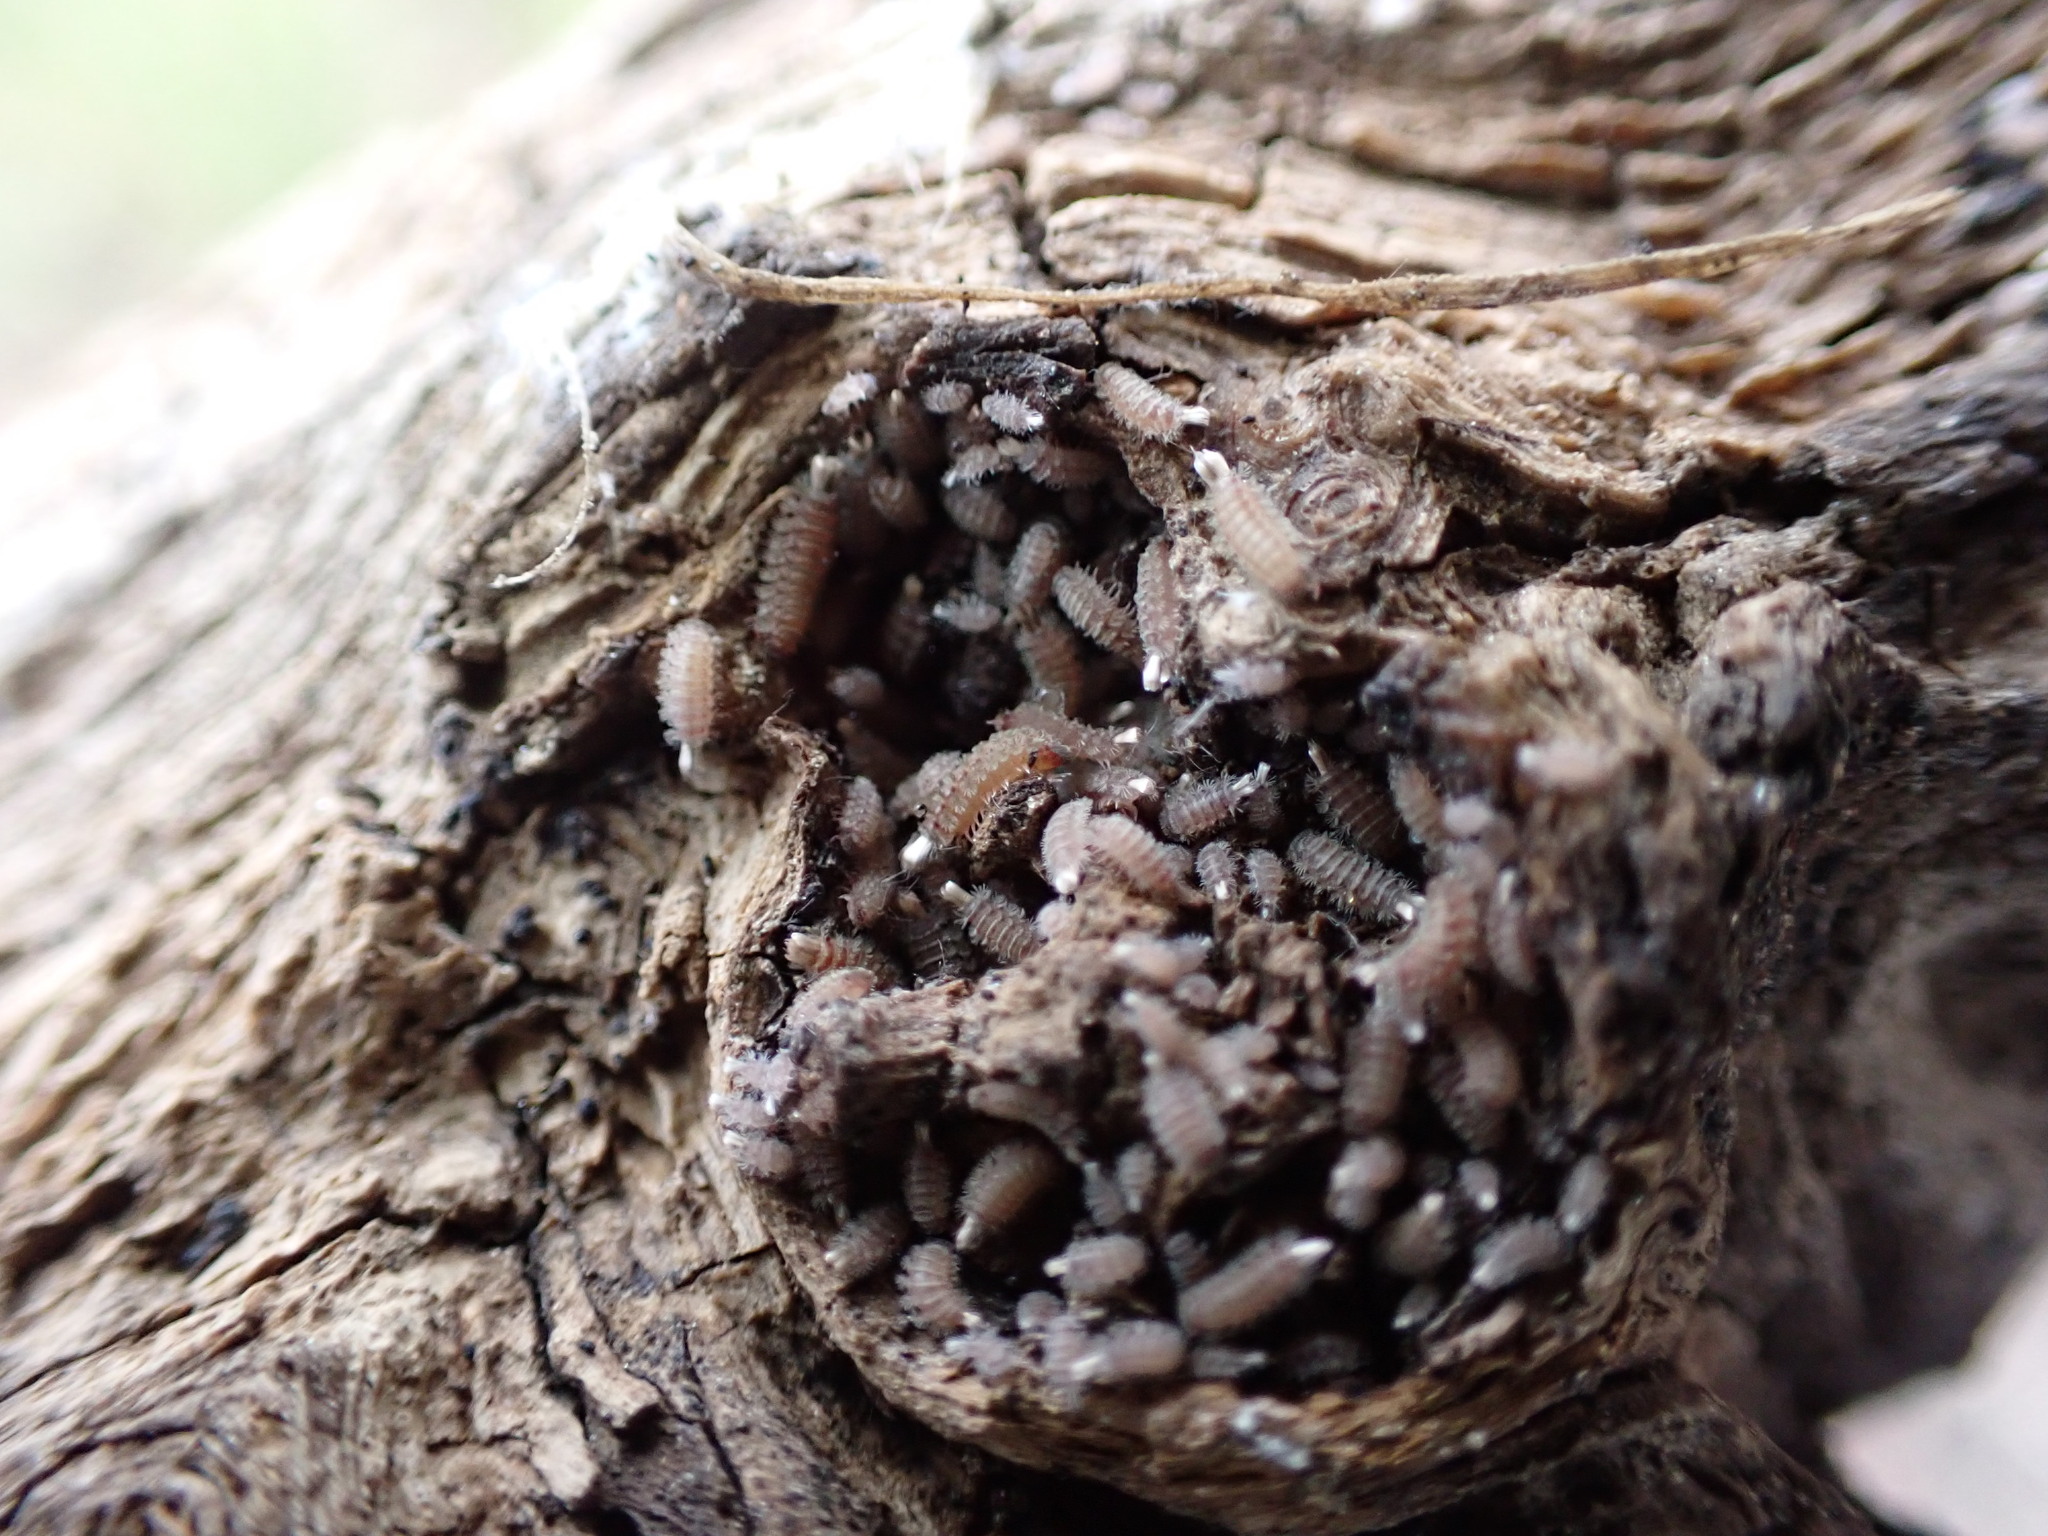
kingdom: Animalia
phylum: Arthropoda
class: Diplopoda
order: Polyxenida
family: Polyxenidae
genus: Polyxenus
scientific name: Polyxenus lagurus
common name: Bristly millipede
